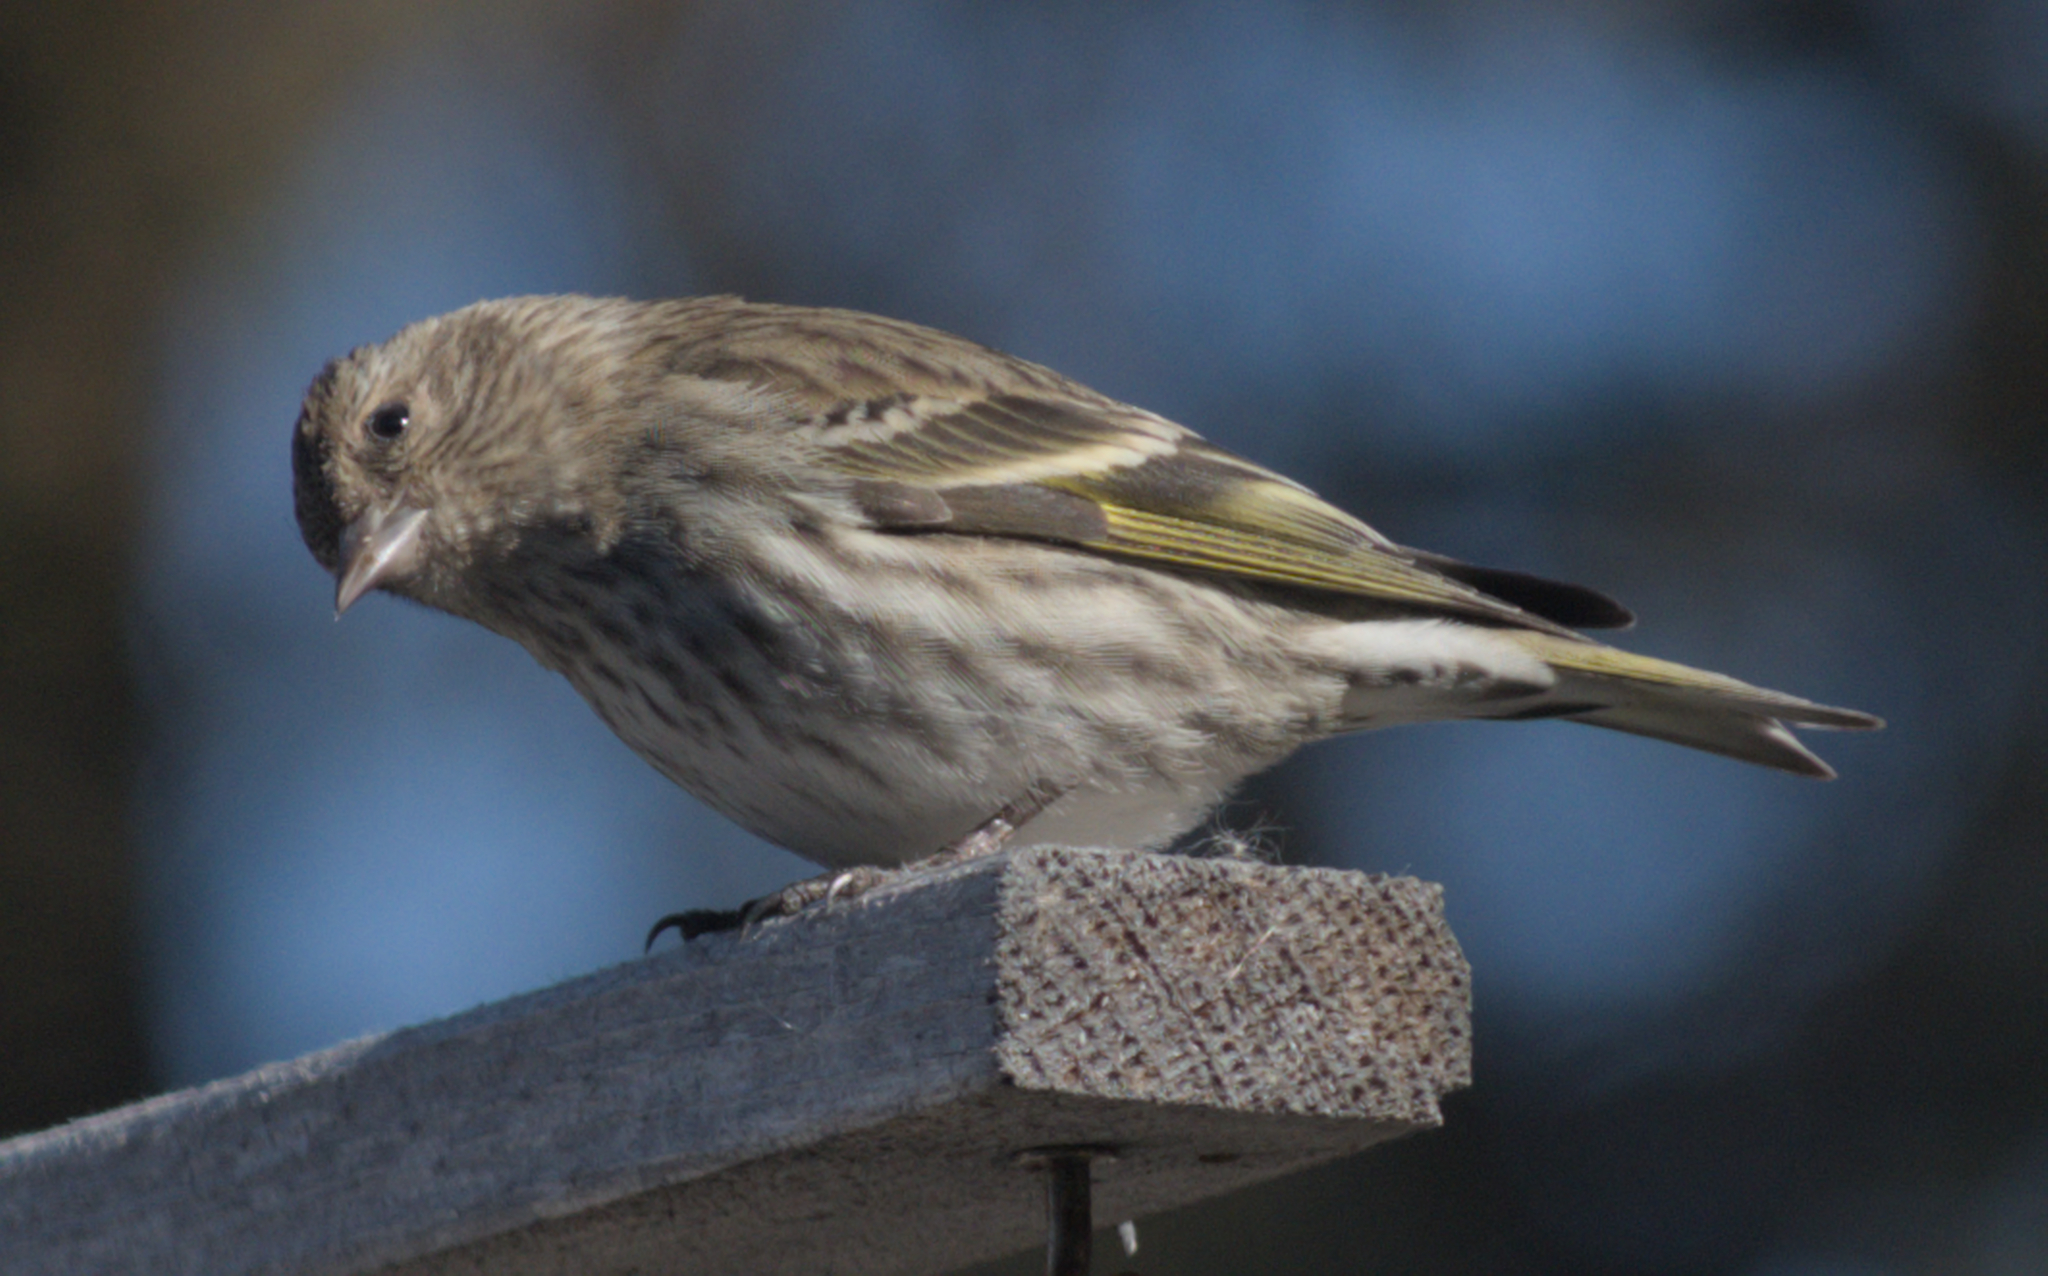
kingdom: Animalia
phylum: Chordata
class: Aves
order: Passeriformes
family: Fringillidae
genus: Spinus
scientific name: Spinus pinus
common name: Pine siskin
